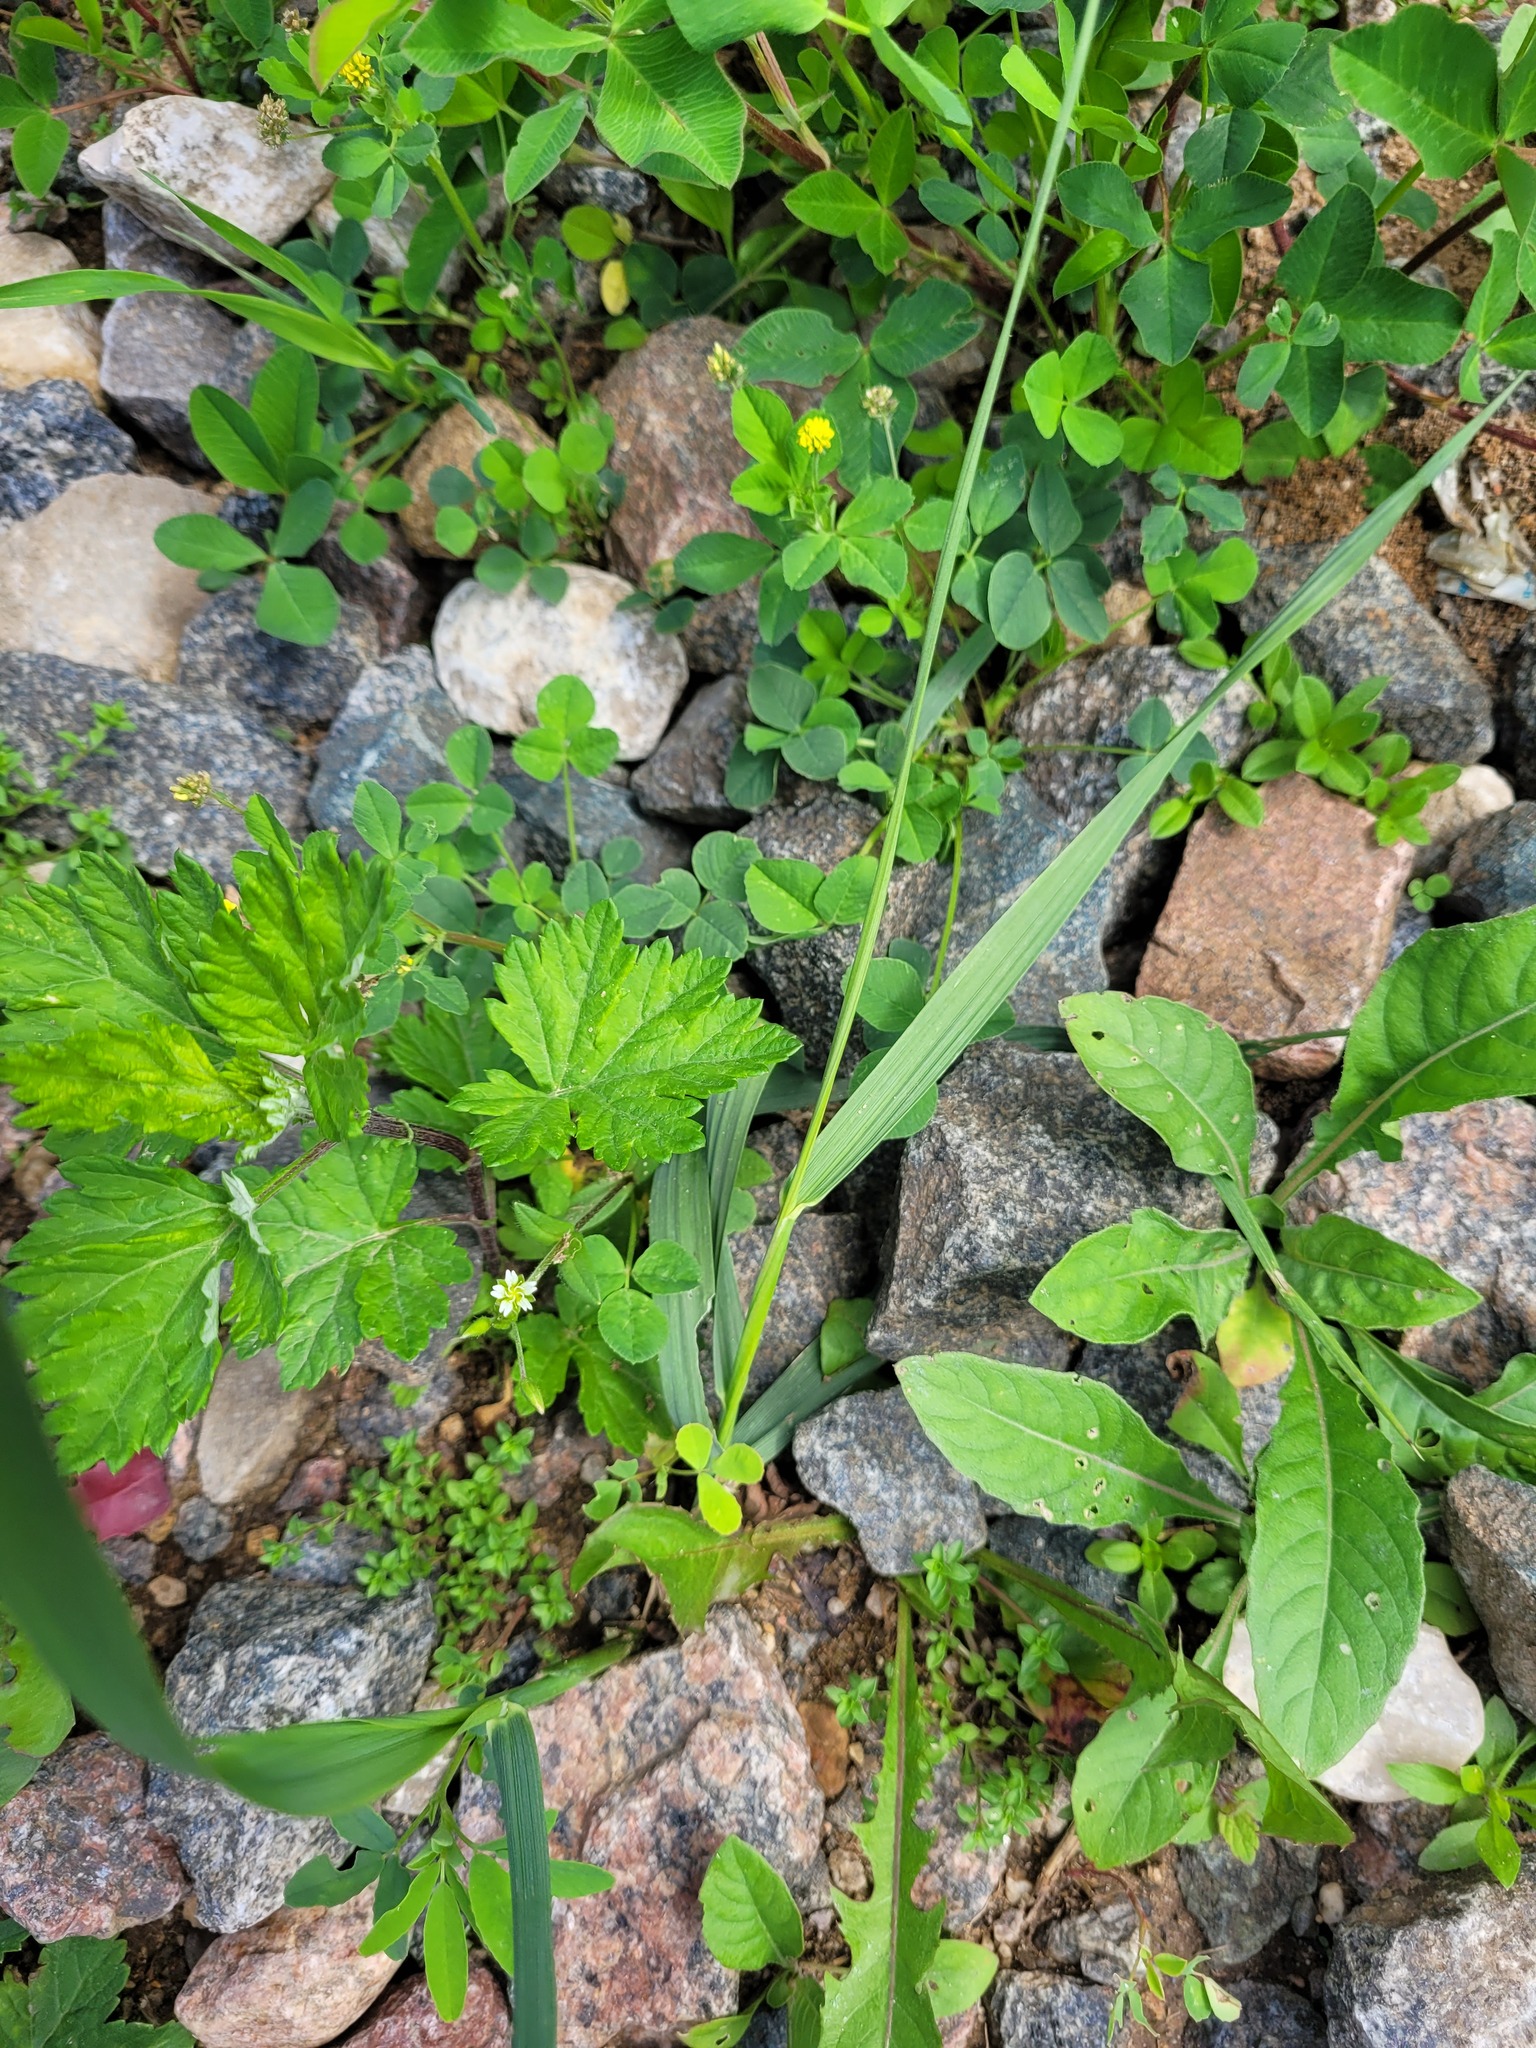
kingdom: Plantae
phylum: Tracheophyta
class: Magnoliopsida
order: Fabales
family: Fabaceae
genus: Medicago
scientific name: Medicago lupulina
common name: Black medick
